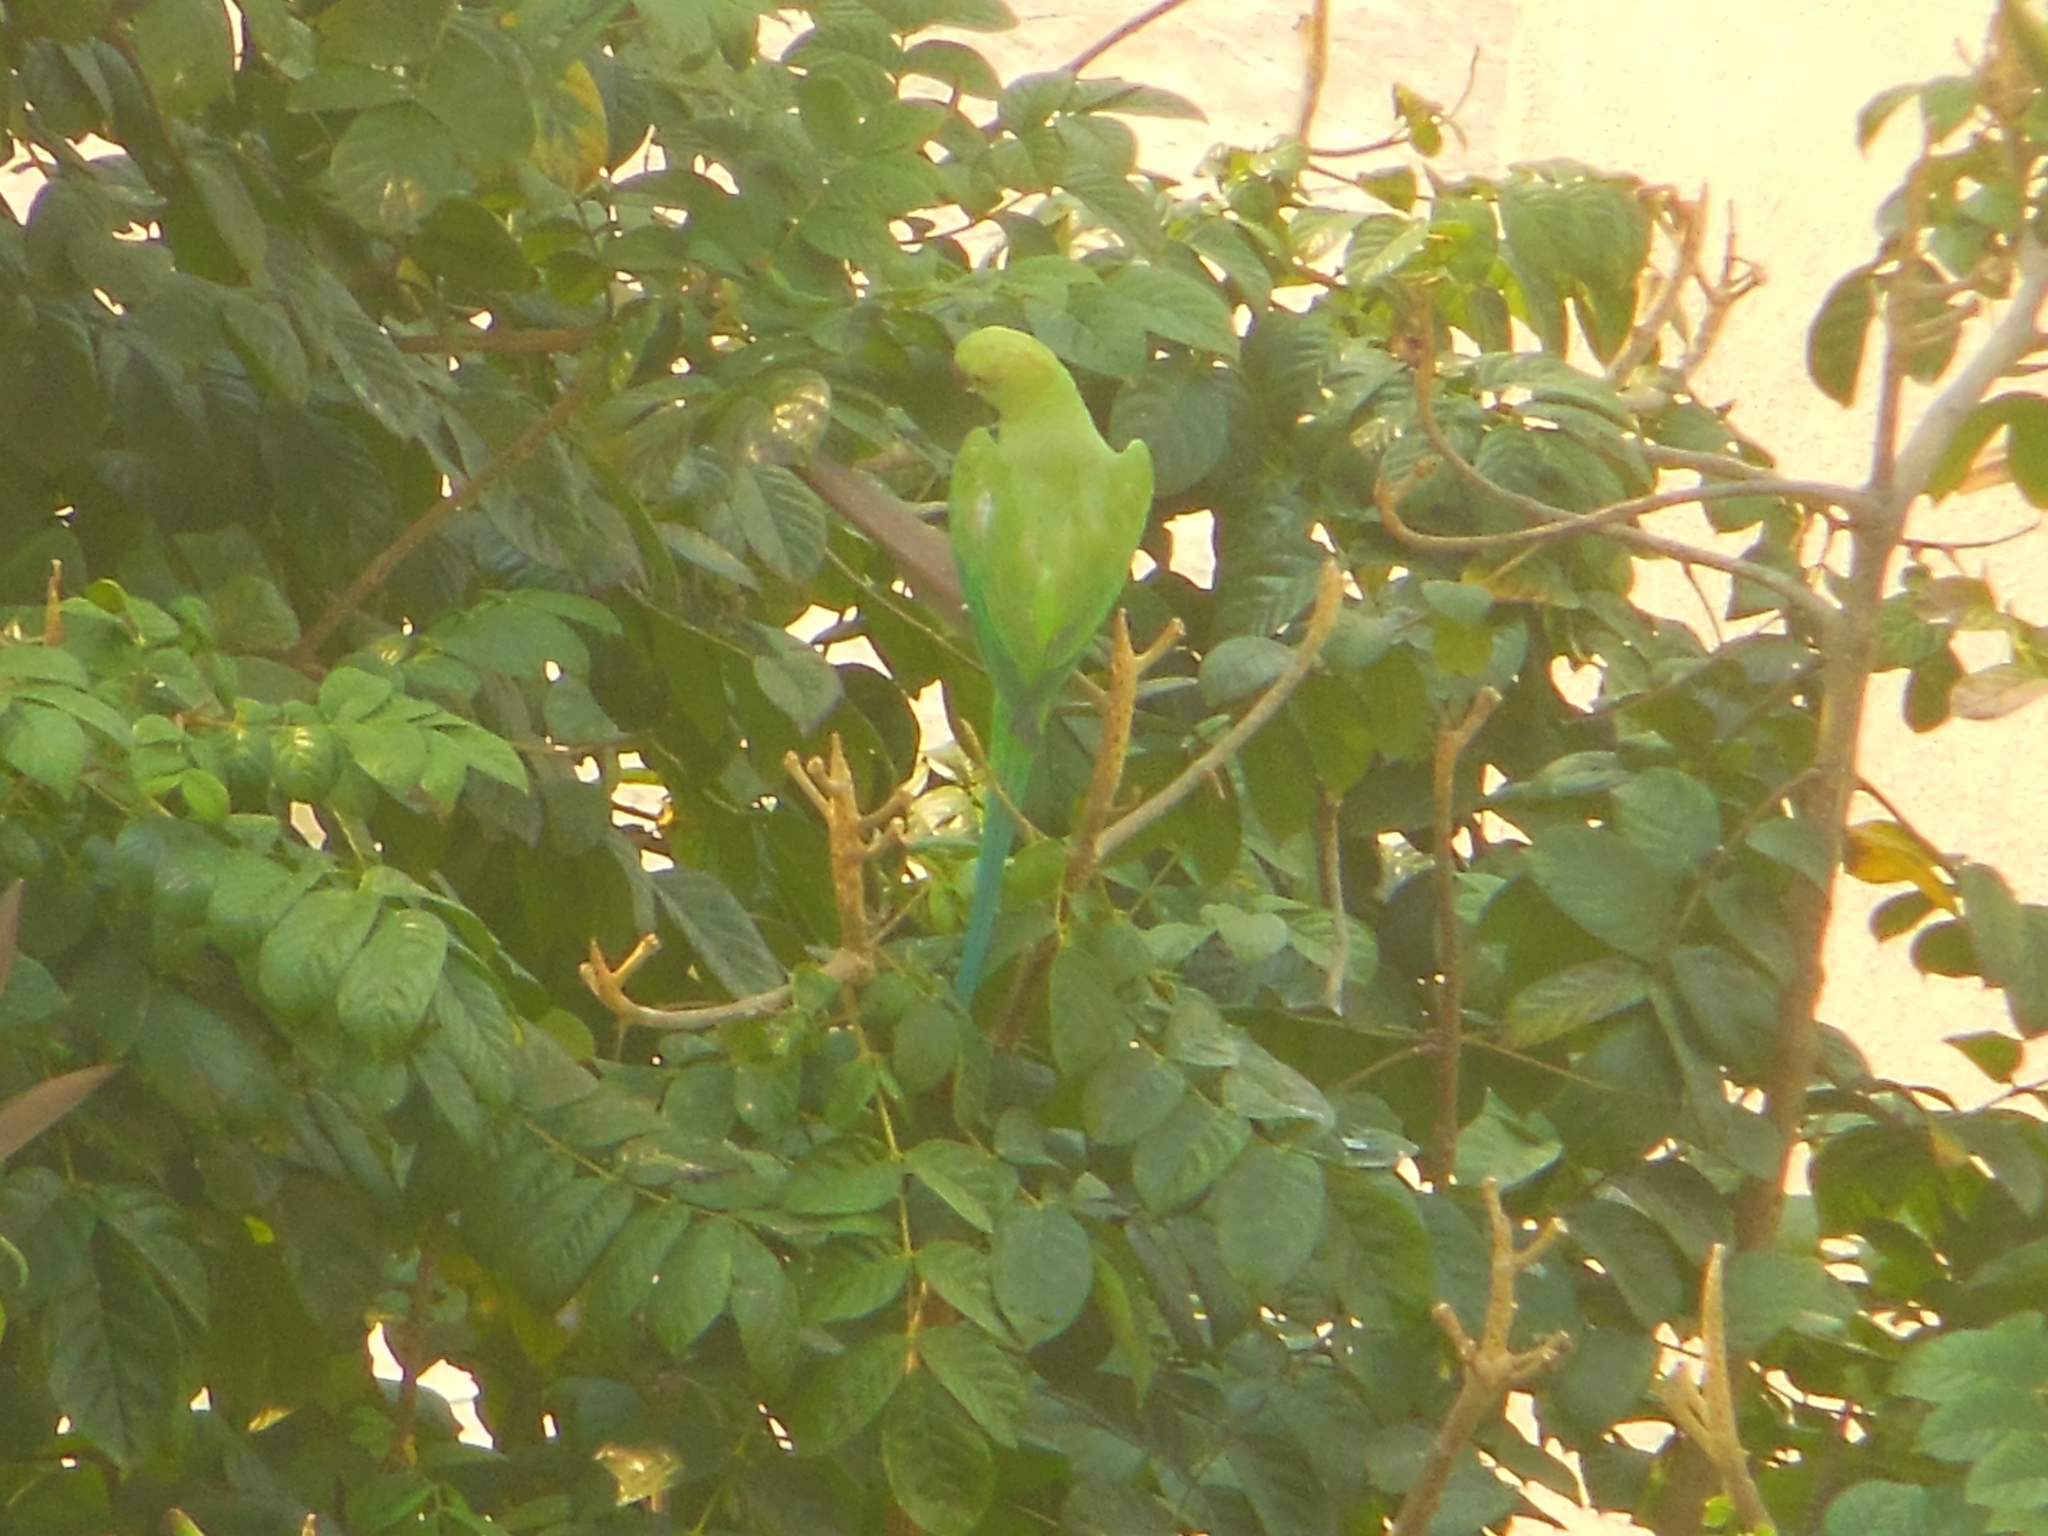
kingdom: Animalia
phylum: Chordata
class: Aves
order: Psittaciformes
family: Psittacidae
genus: Psittacula
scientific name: Psittacula krameri
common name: Rose-ringed parakeet
